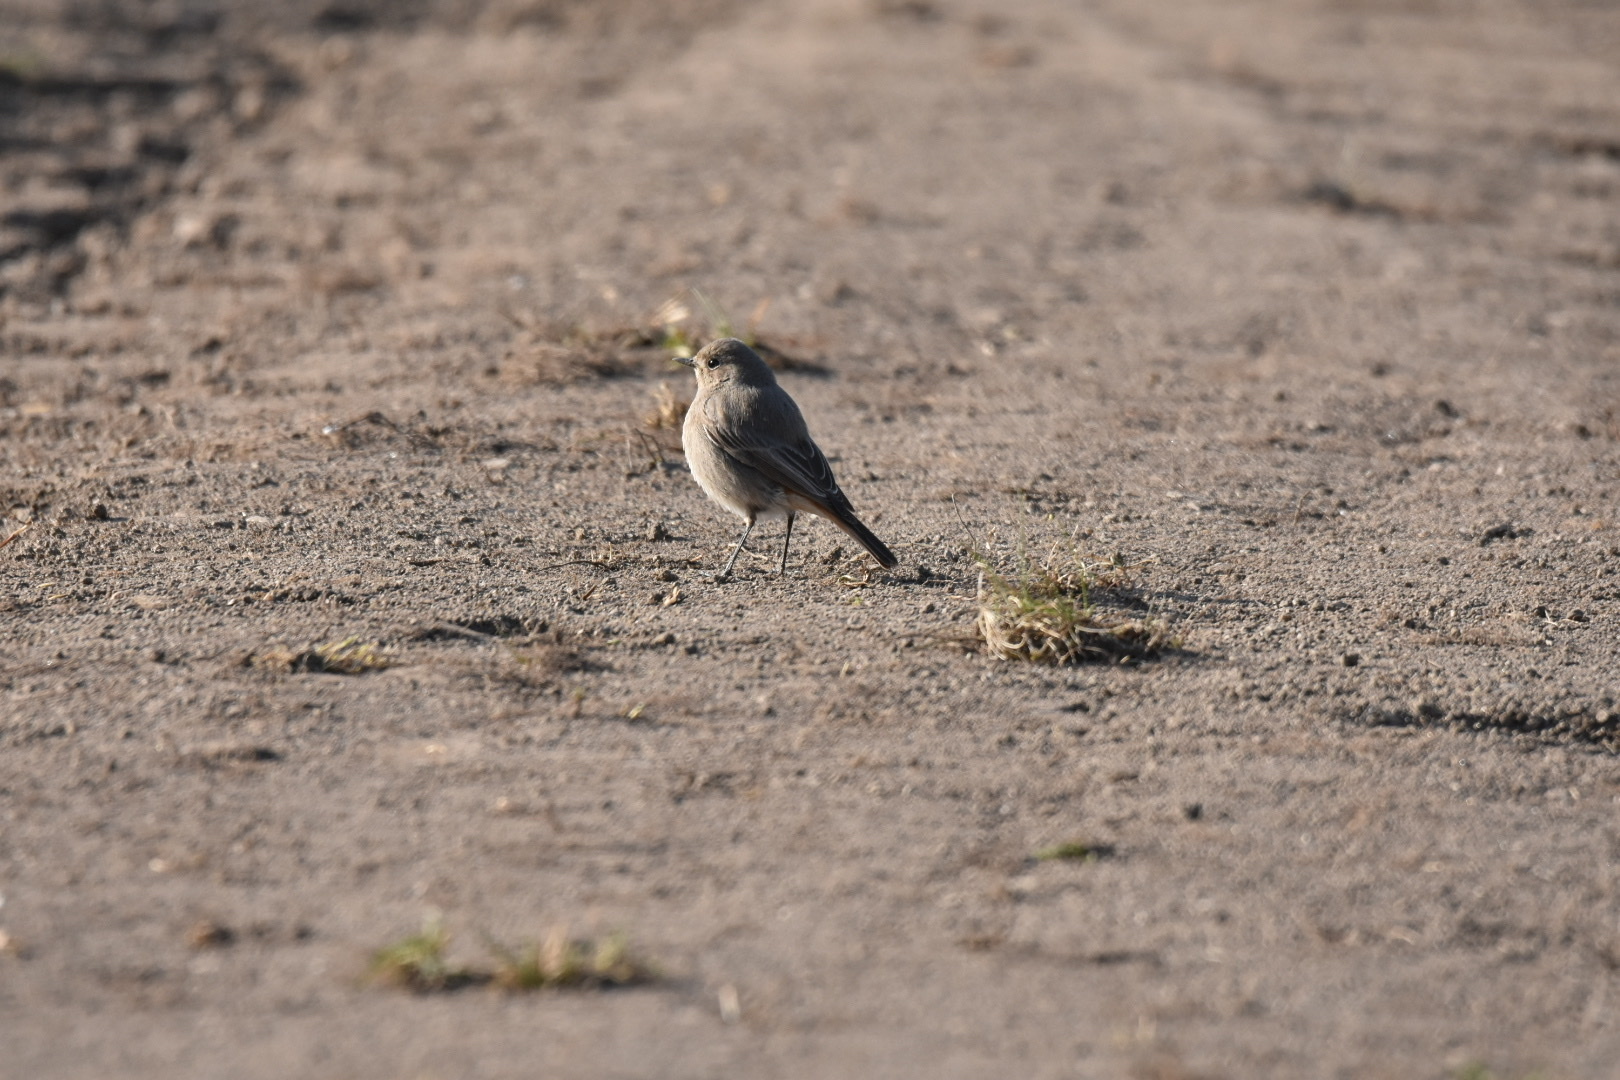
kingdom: Animalia
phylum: Chordata
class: Aves
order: Passeriformes
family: Muscicapidae
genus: Phoenicurus
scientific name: Phoenicurus ochruros
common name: Black redstart
